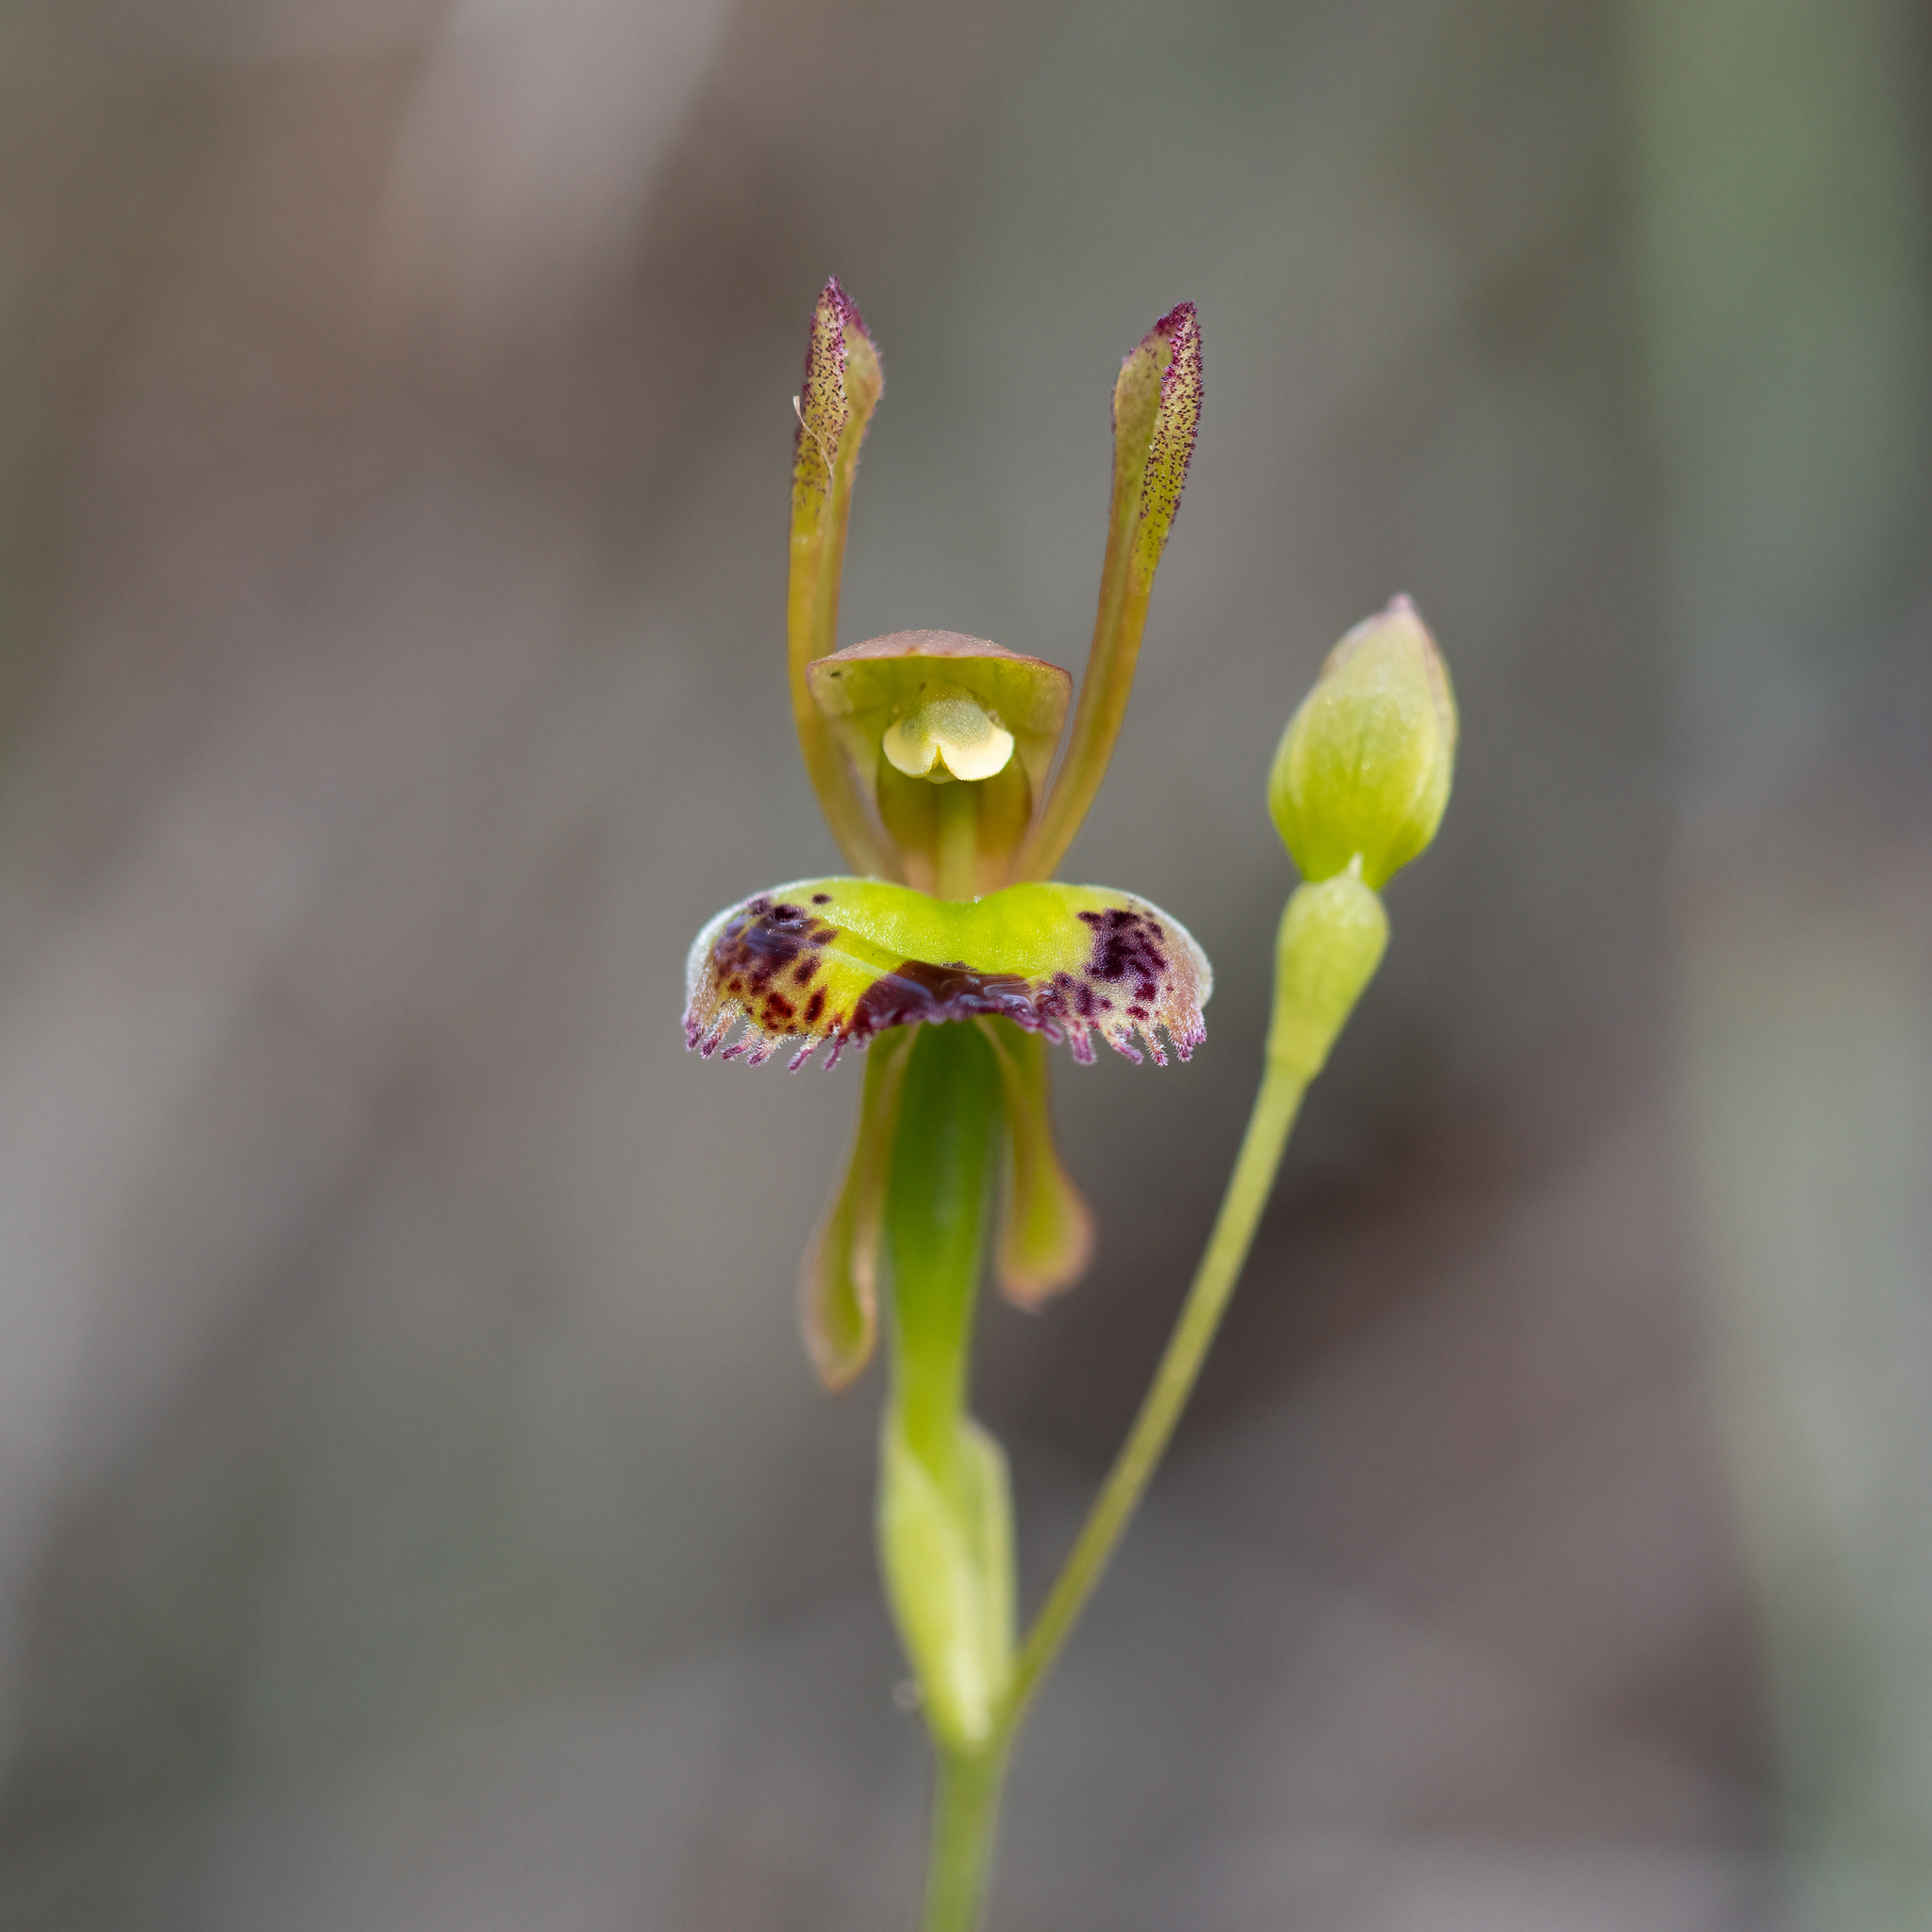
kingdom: Plantae
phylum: Tracheophyta
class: Liliopsida
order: Asparagales
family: Orchidaceae
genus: Leporella
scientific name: Leporella fimbriata
